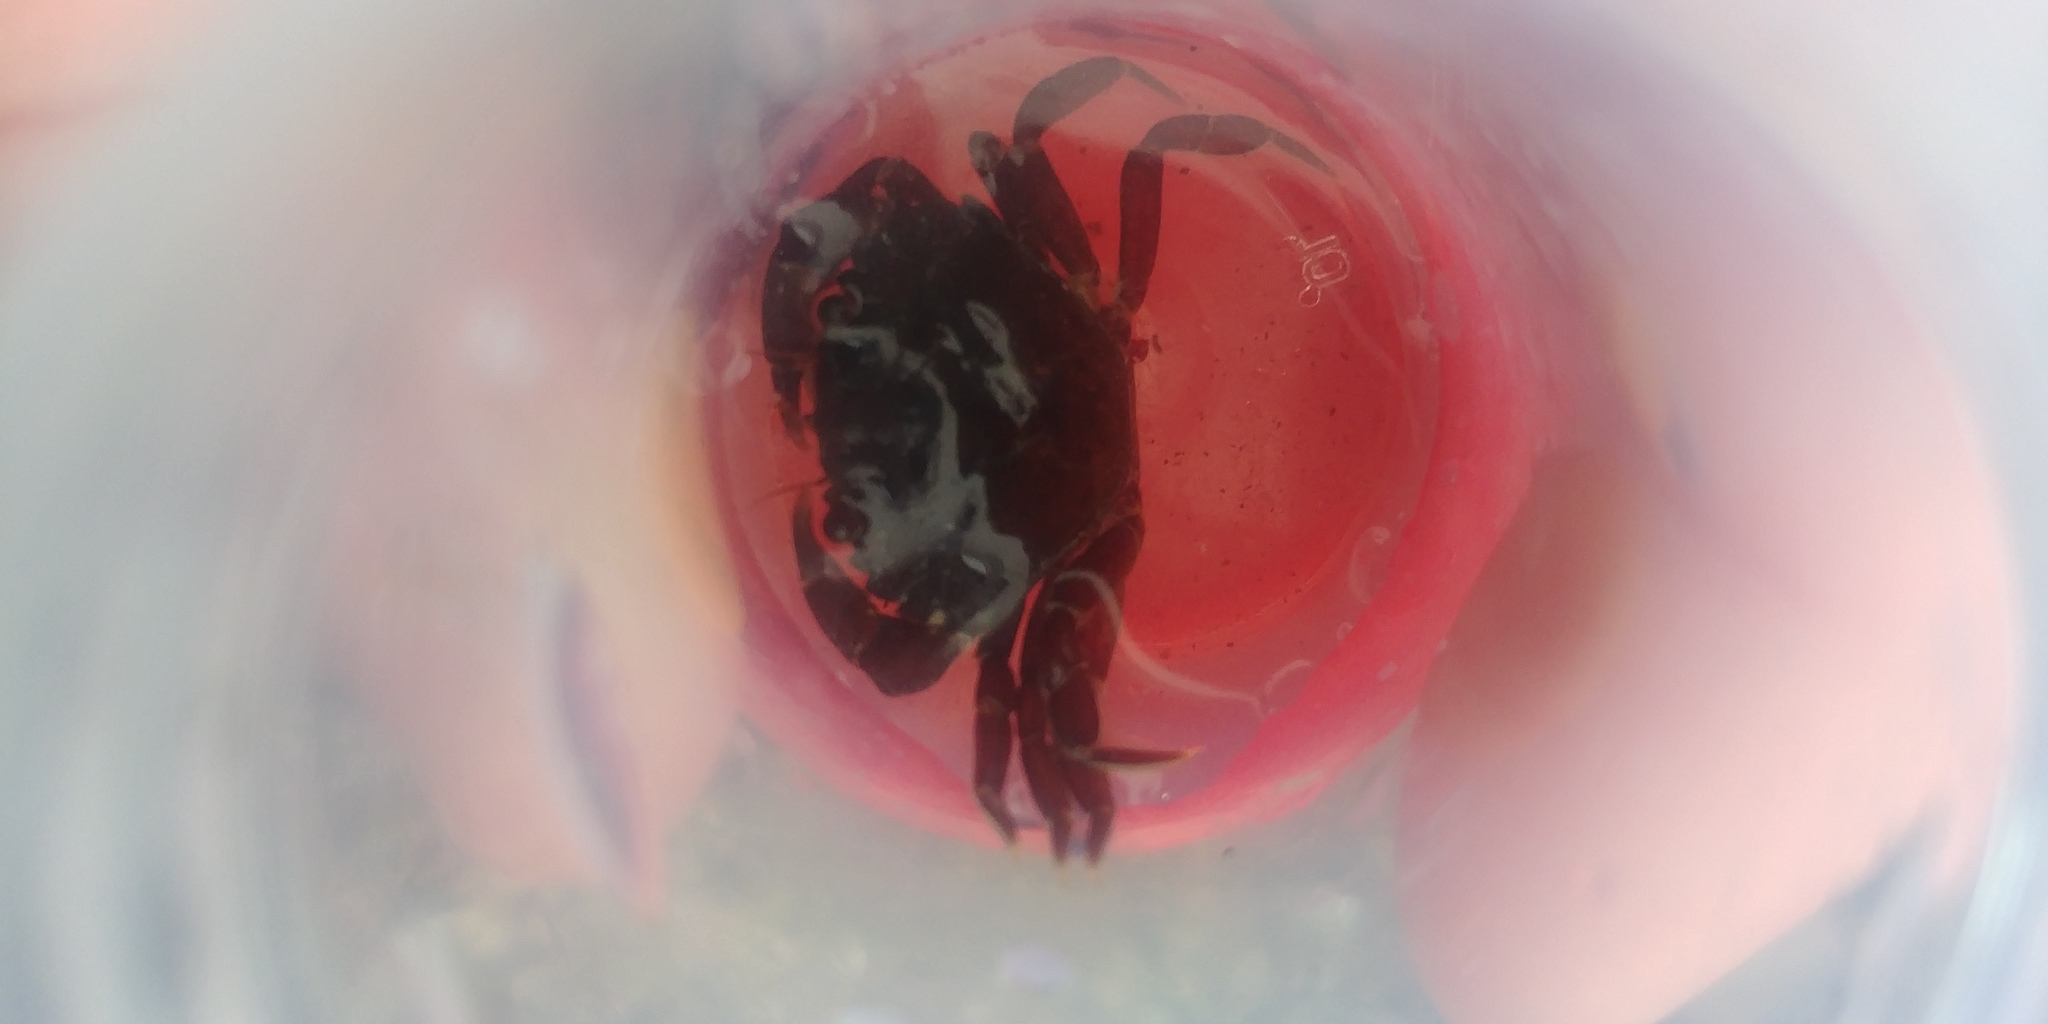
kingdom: Animalia
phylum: Arthropoda
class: Malacostraca
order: Decapoda
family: Carcinidae
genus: Carcinus
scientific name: Carcinus maenas
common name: European green crab
